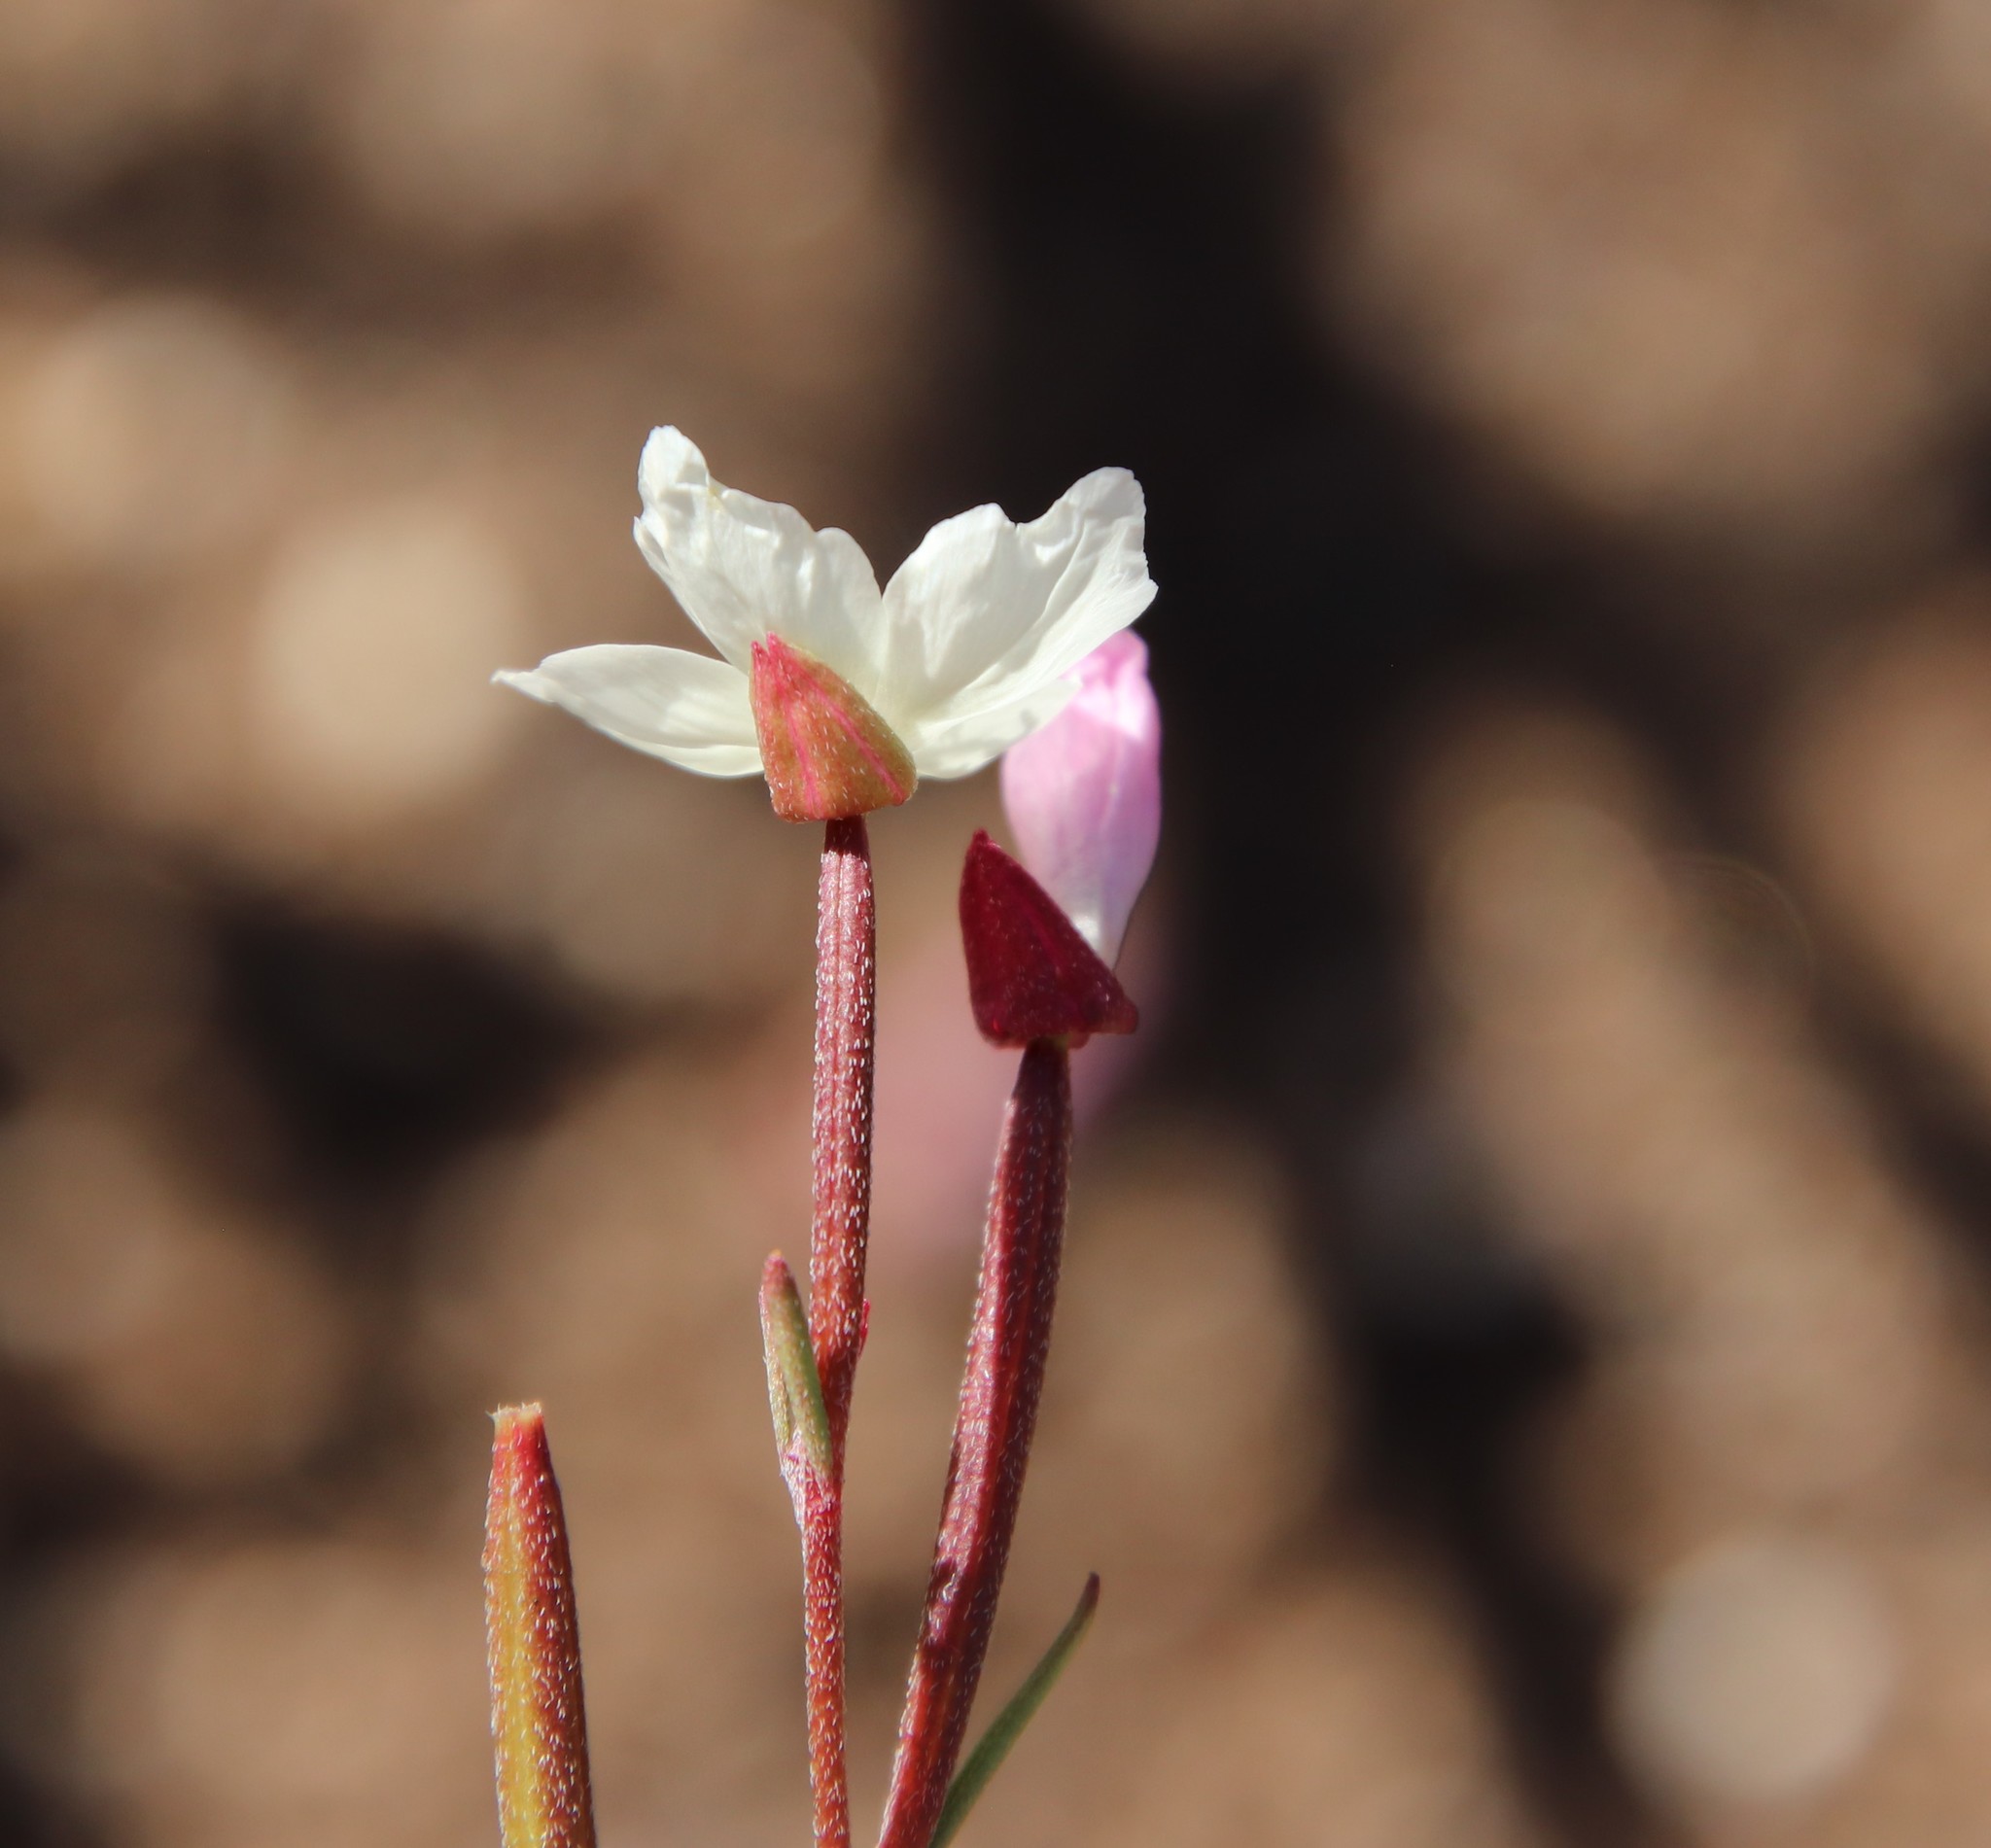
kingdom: Plantae
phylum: Tracheophyta
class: Magnoliopsida
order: Myrtales
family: Onagraceae
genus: Clarkia
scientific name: Clarkia epilobioides
